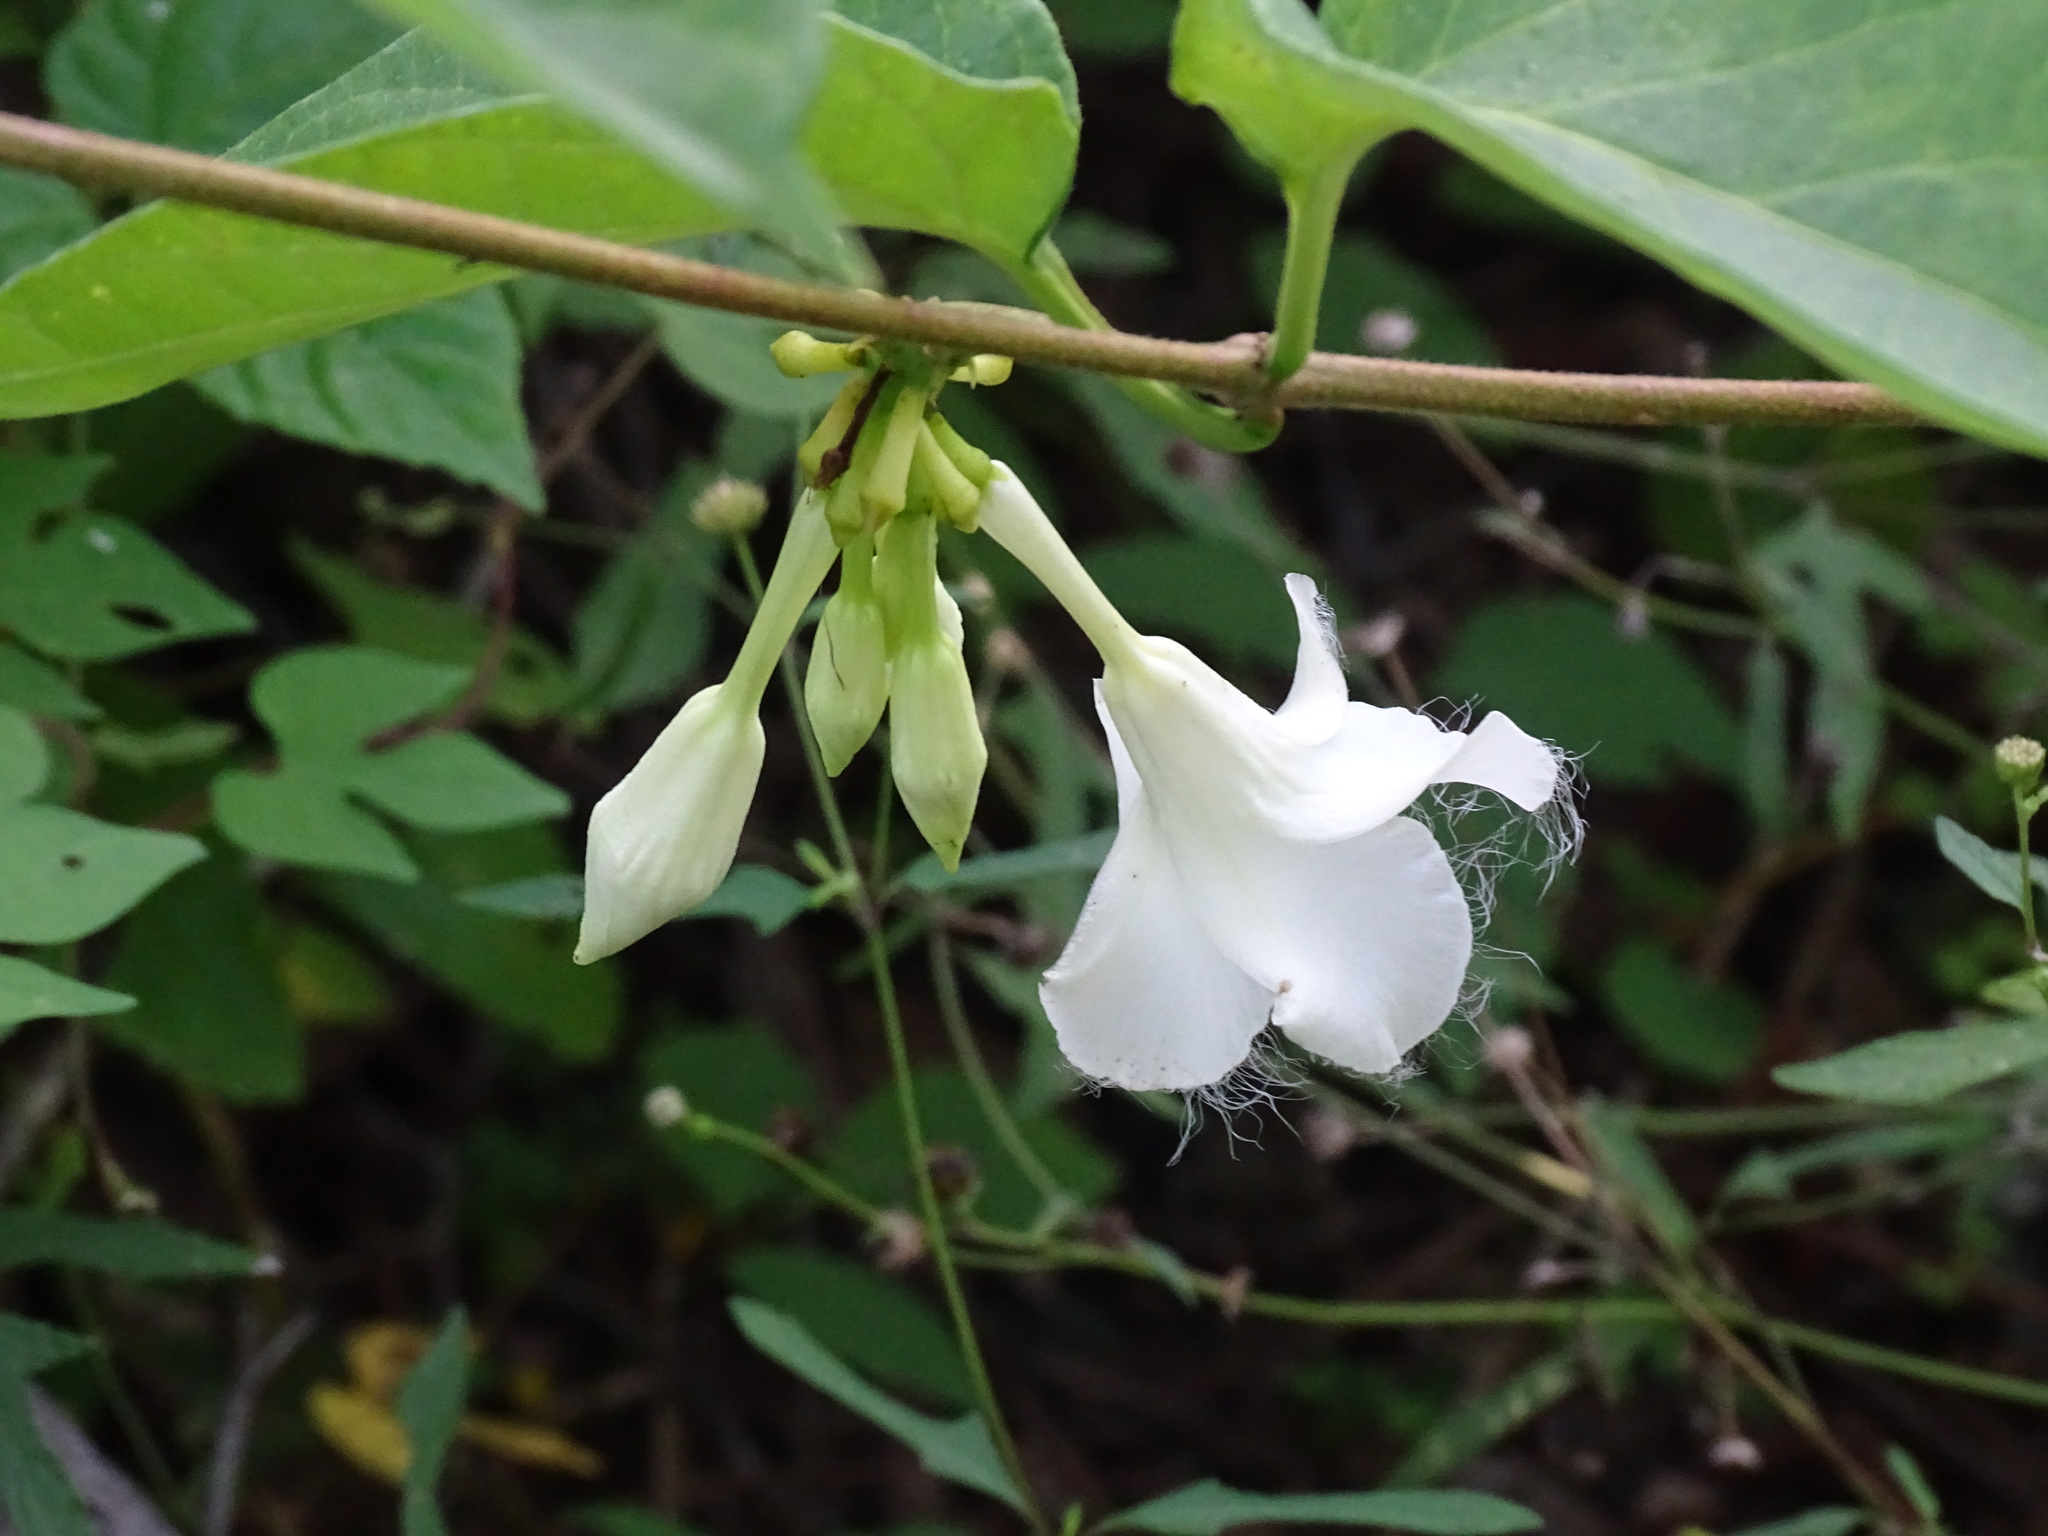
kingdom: Plantae
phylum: Tracheophyta
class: Magnoliopsida
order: Gentianales
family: Apocynaceae
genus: Echites
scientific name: Echites panduratus
